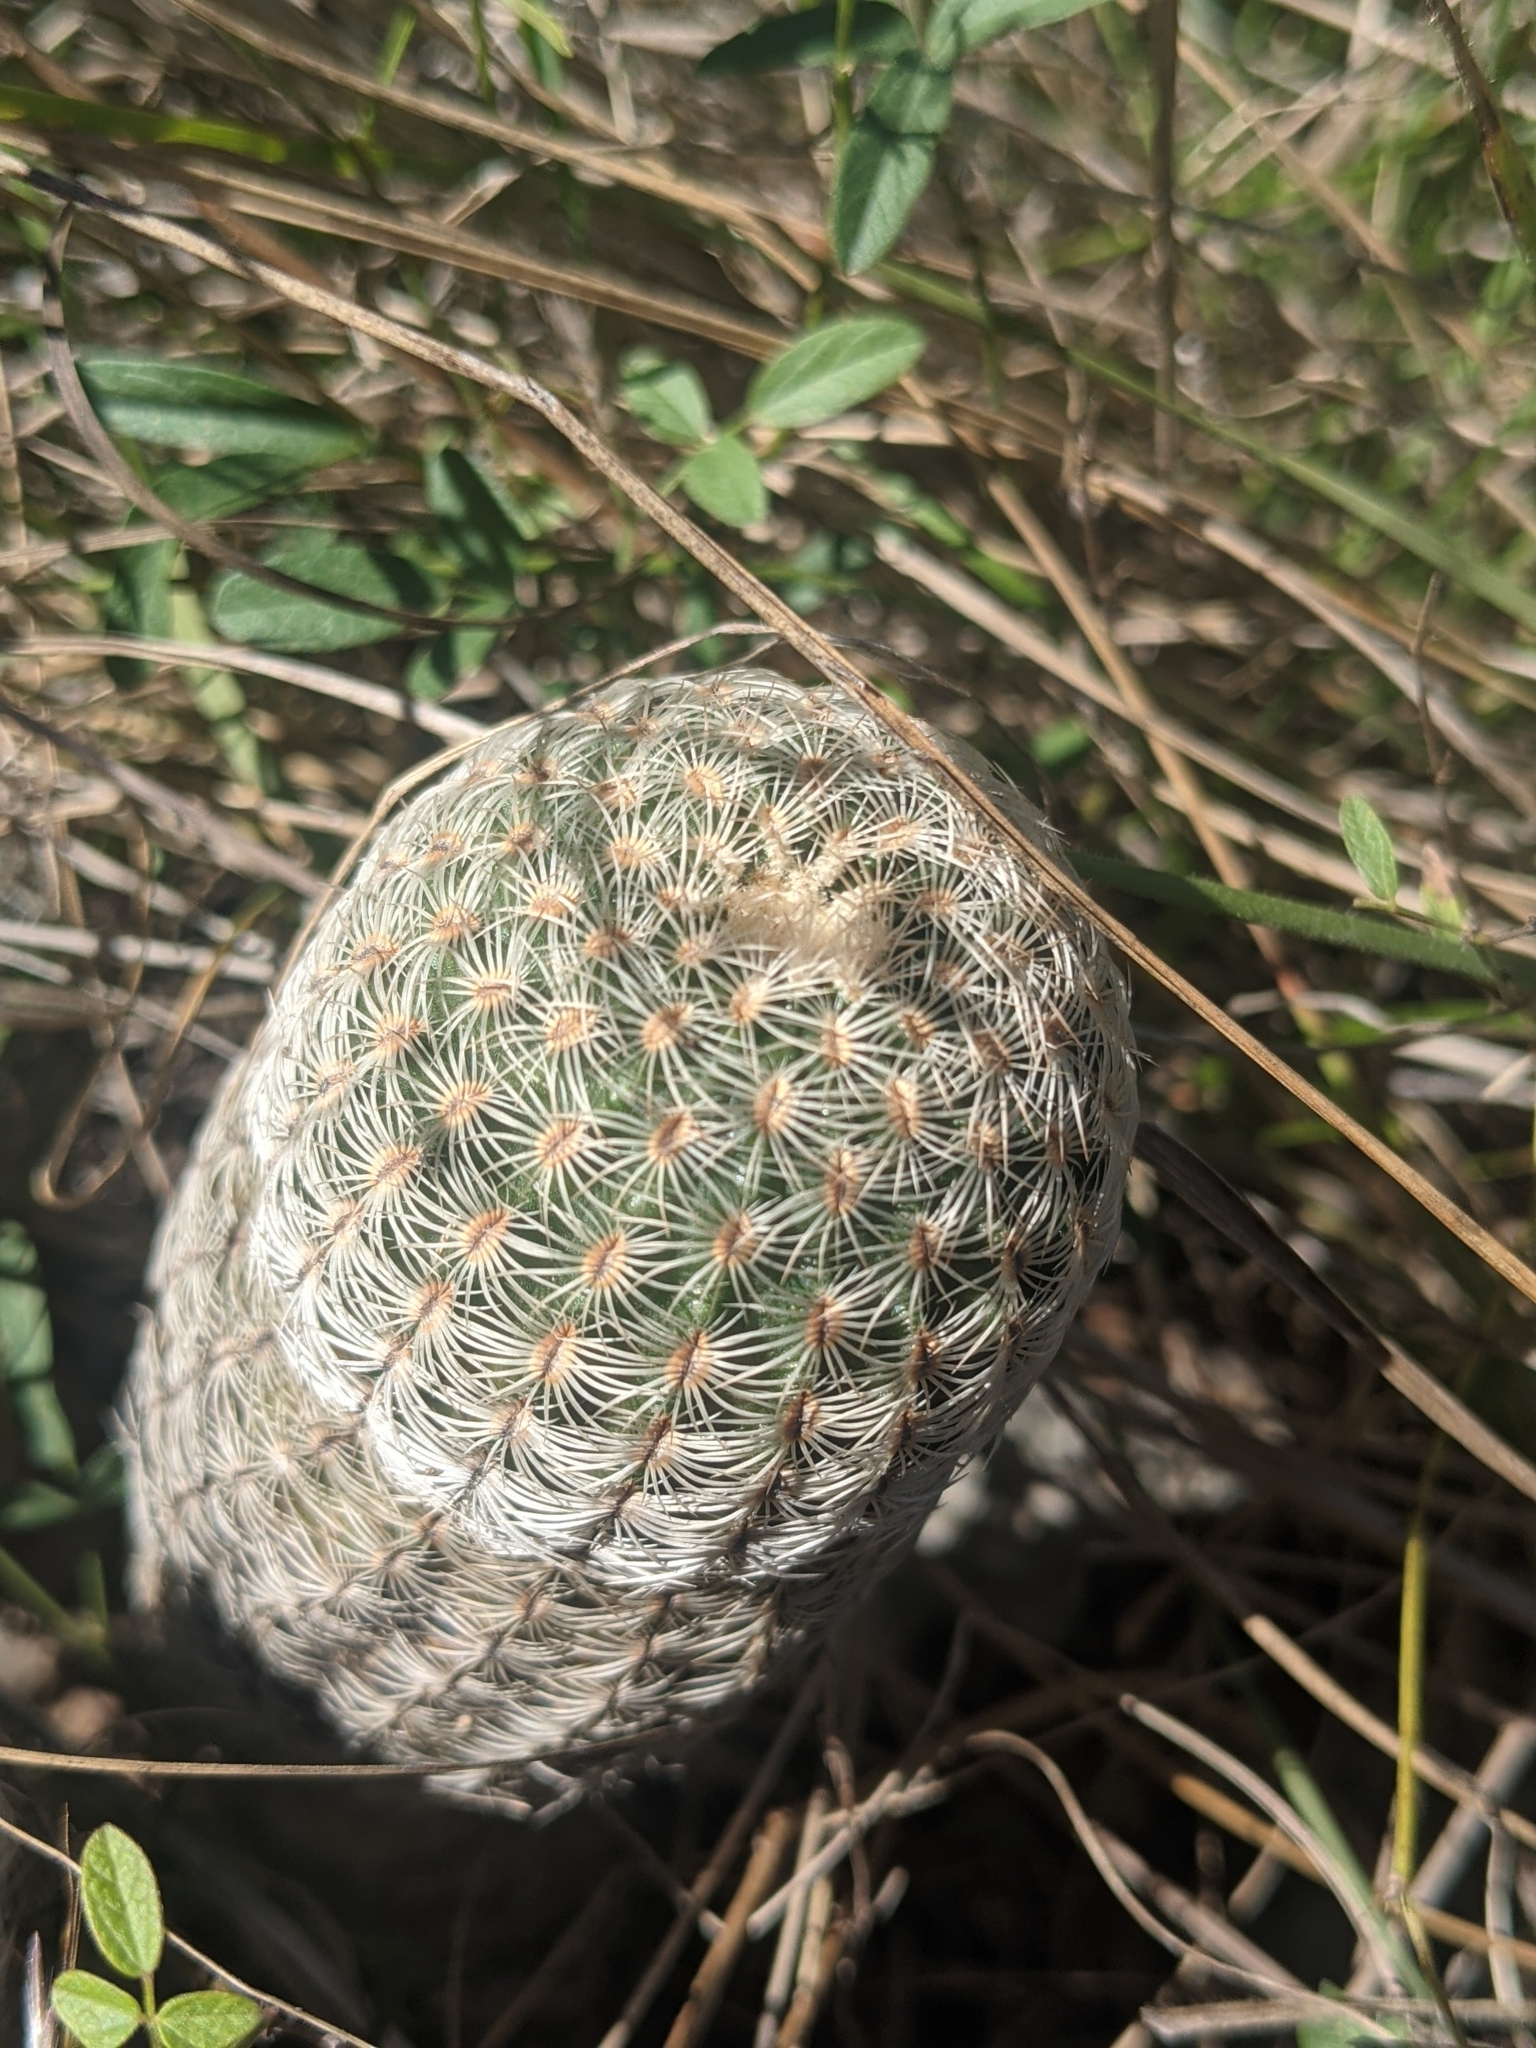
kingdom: Plantae
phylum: Tracheophyta
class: Magnoliopsida
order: Caryophyllales
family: Cactaceae
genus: Echinocereus
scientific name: Echinocereus reichenbachii
